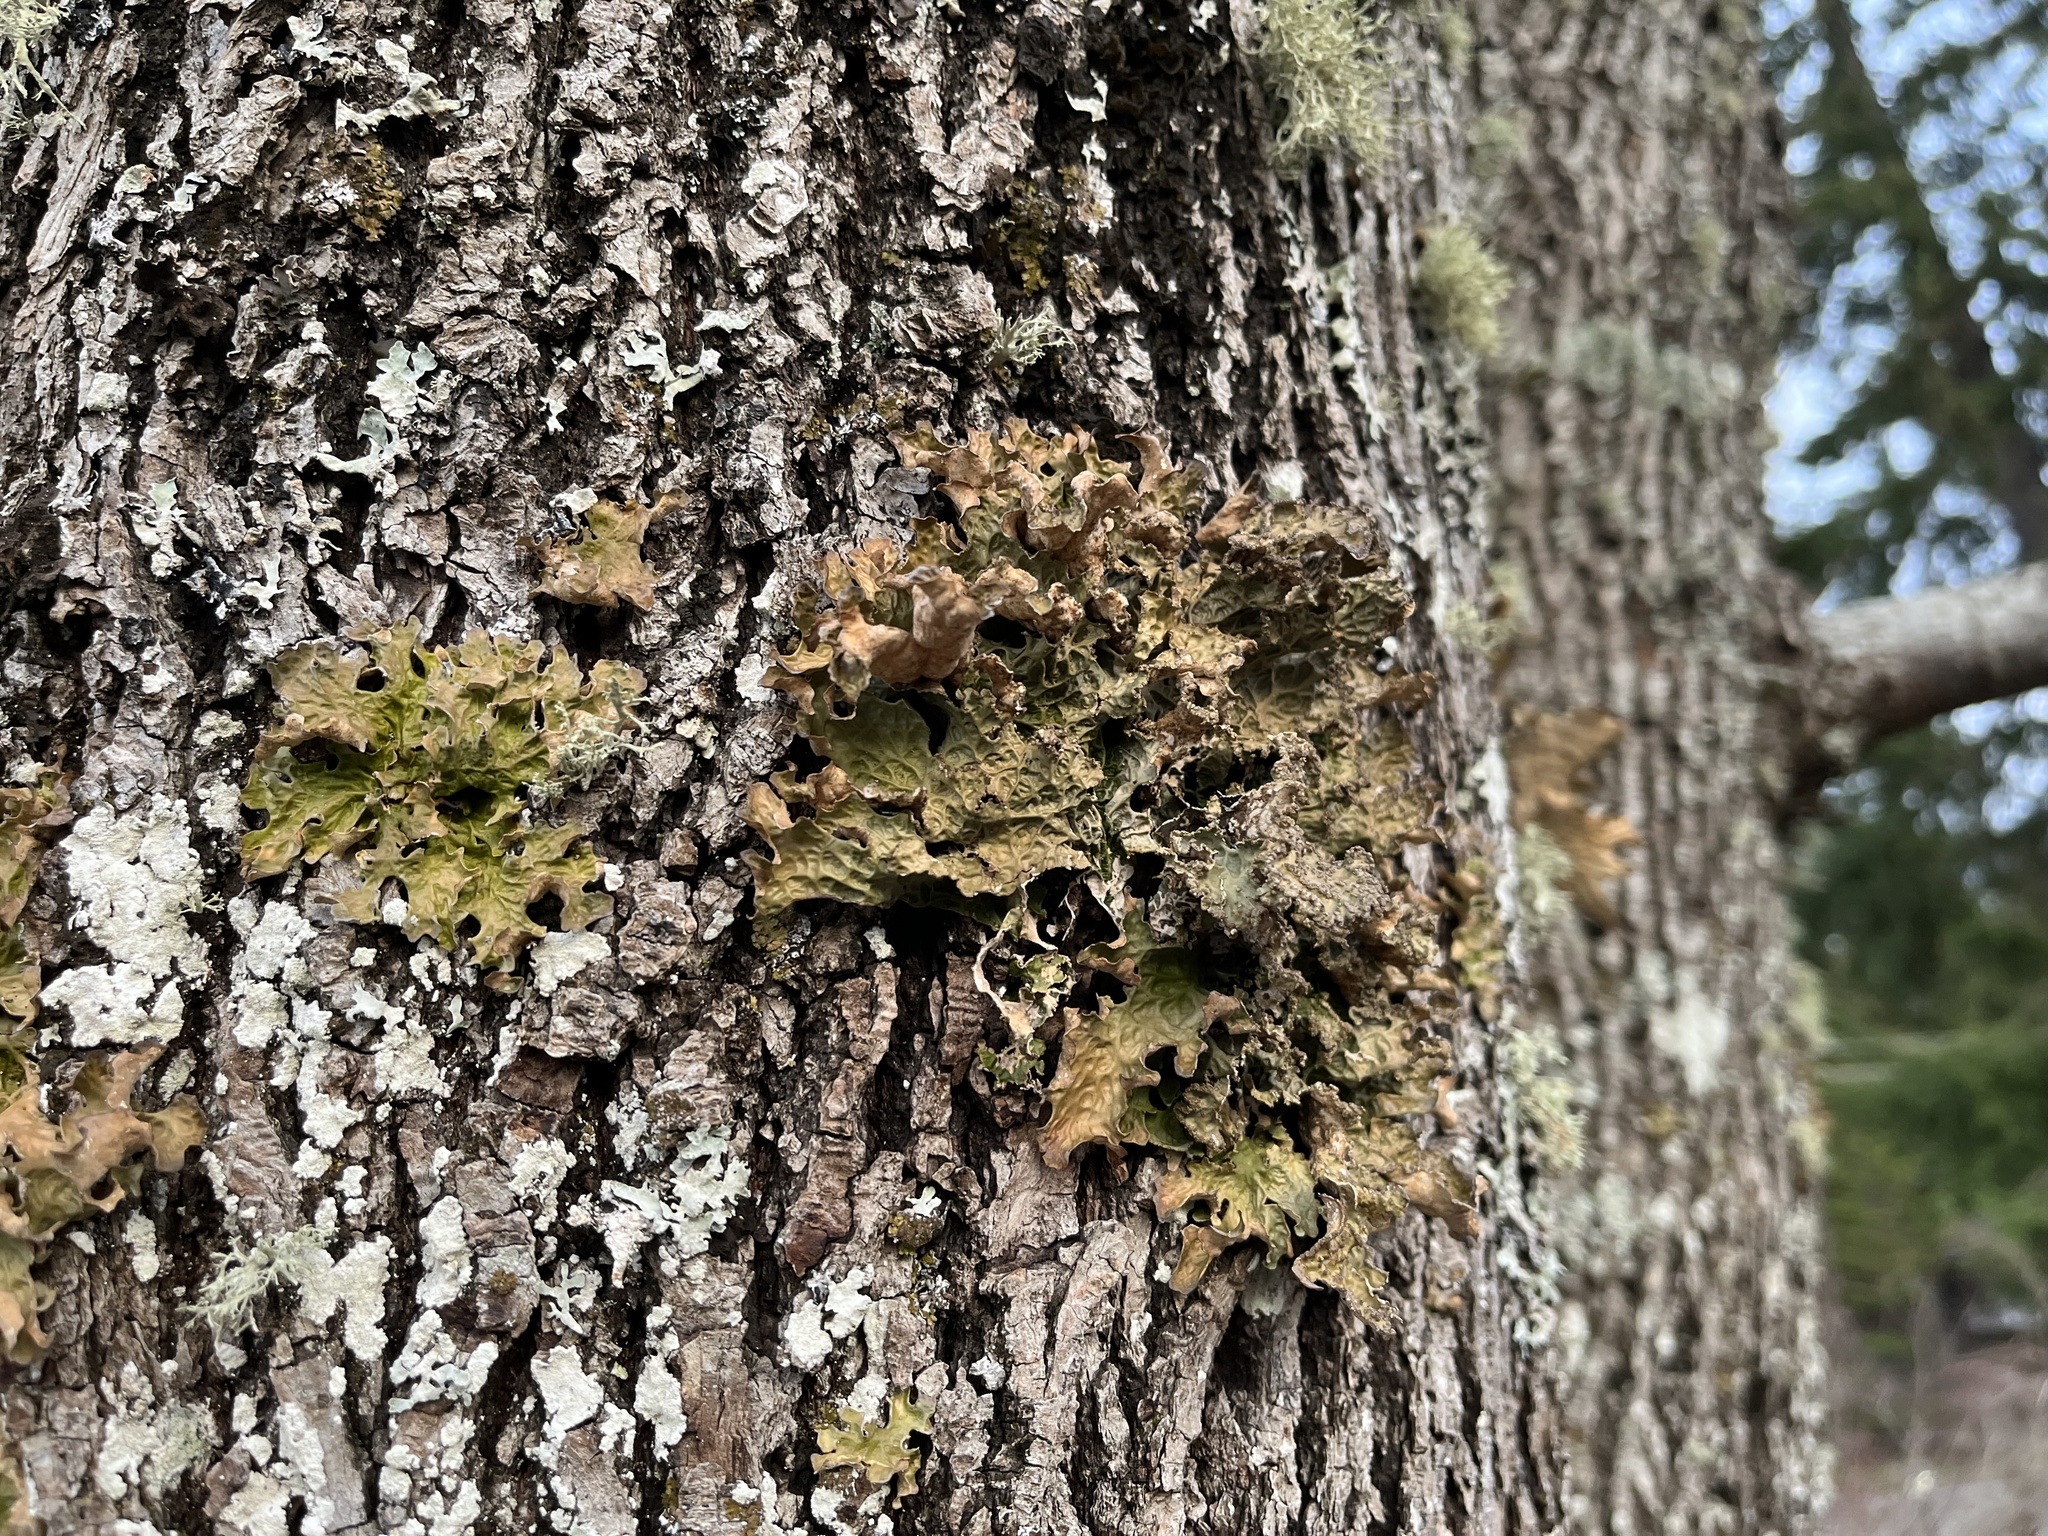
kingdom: Fungi
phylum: Ascomycota
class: Lecanoromycetes
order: Peltigerales
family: Lobariaceae
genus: Lobaria
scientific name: Lobaria pulmonaria
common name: Lungwort
